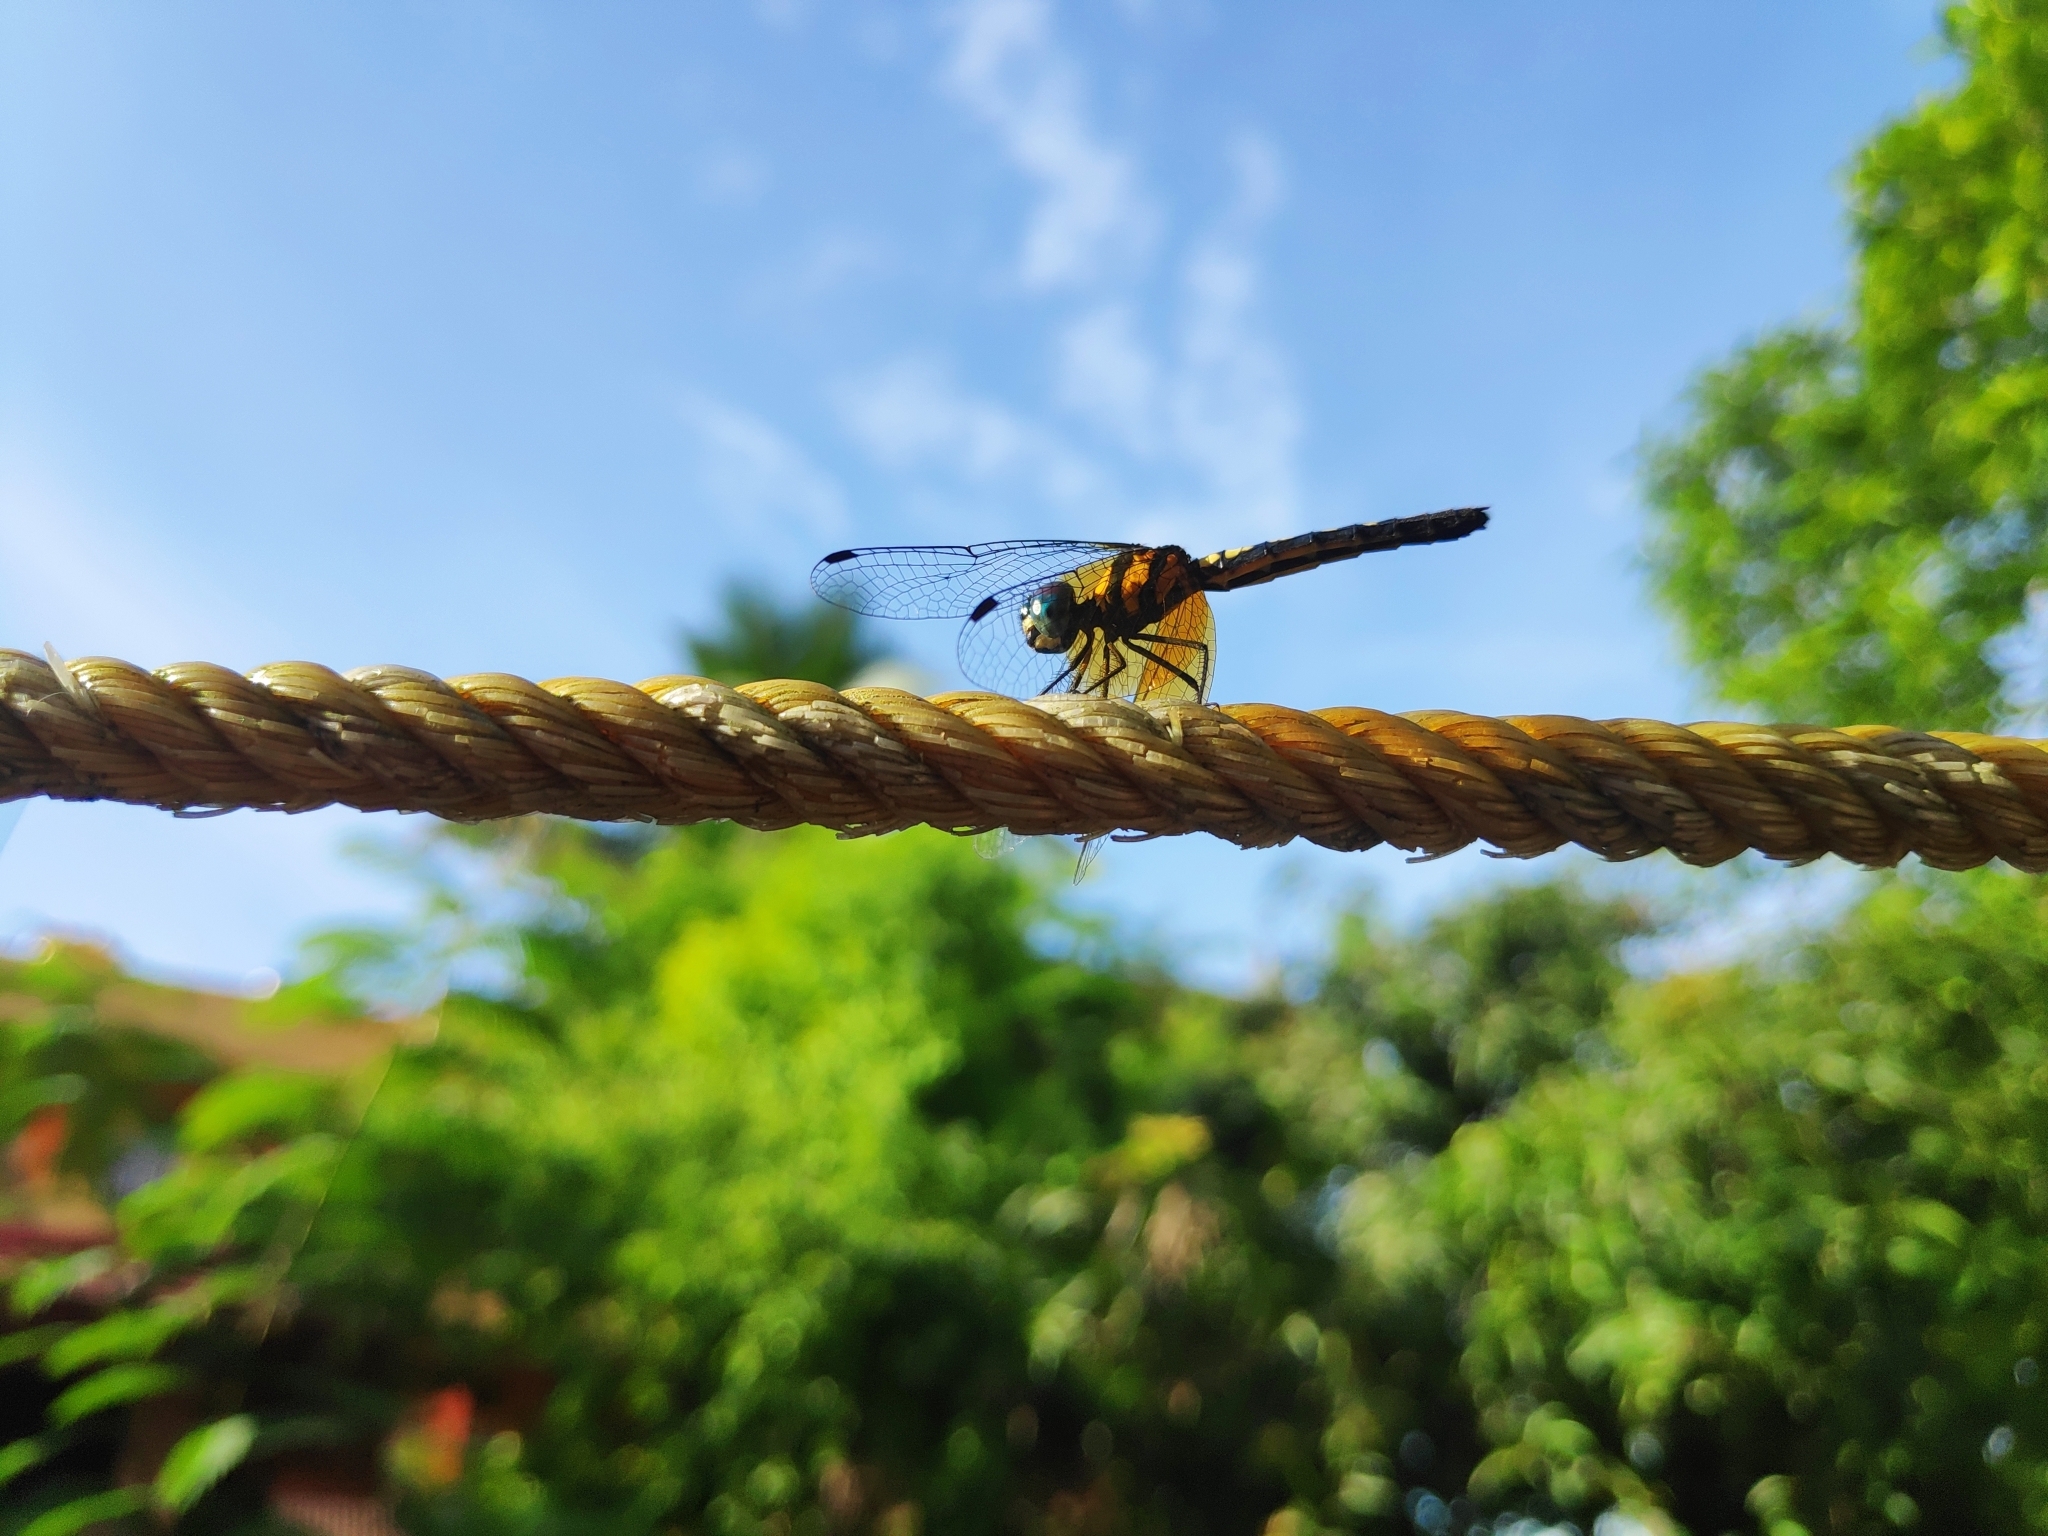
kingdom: Animalia
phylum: Arthropoda
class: Insecta
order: Odonata
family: Libellulidae
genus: Tetrathemis
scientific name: Tetrathemis platyptera
